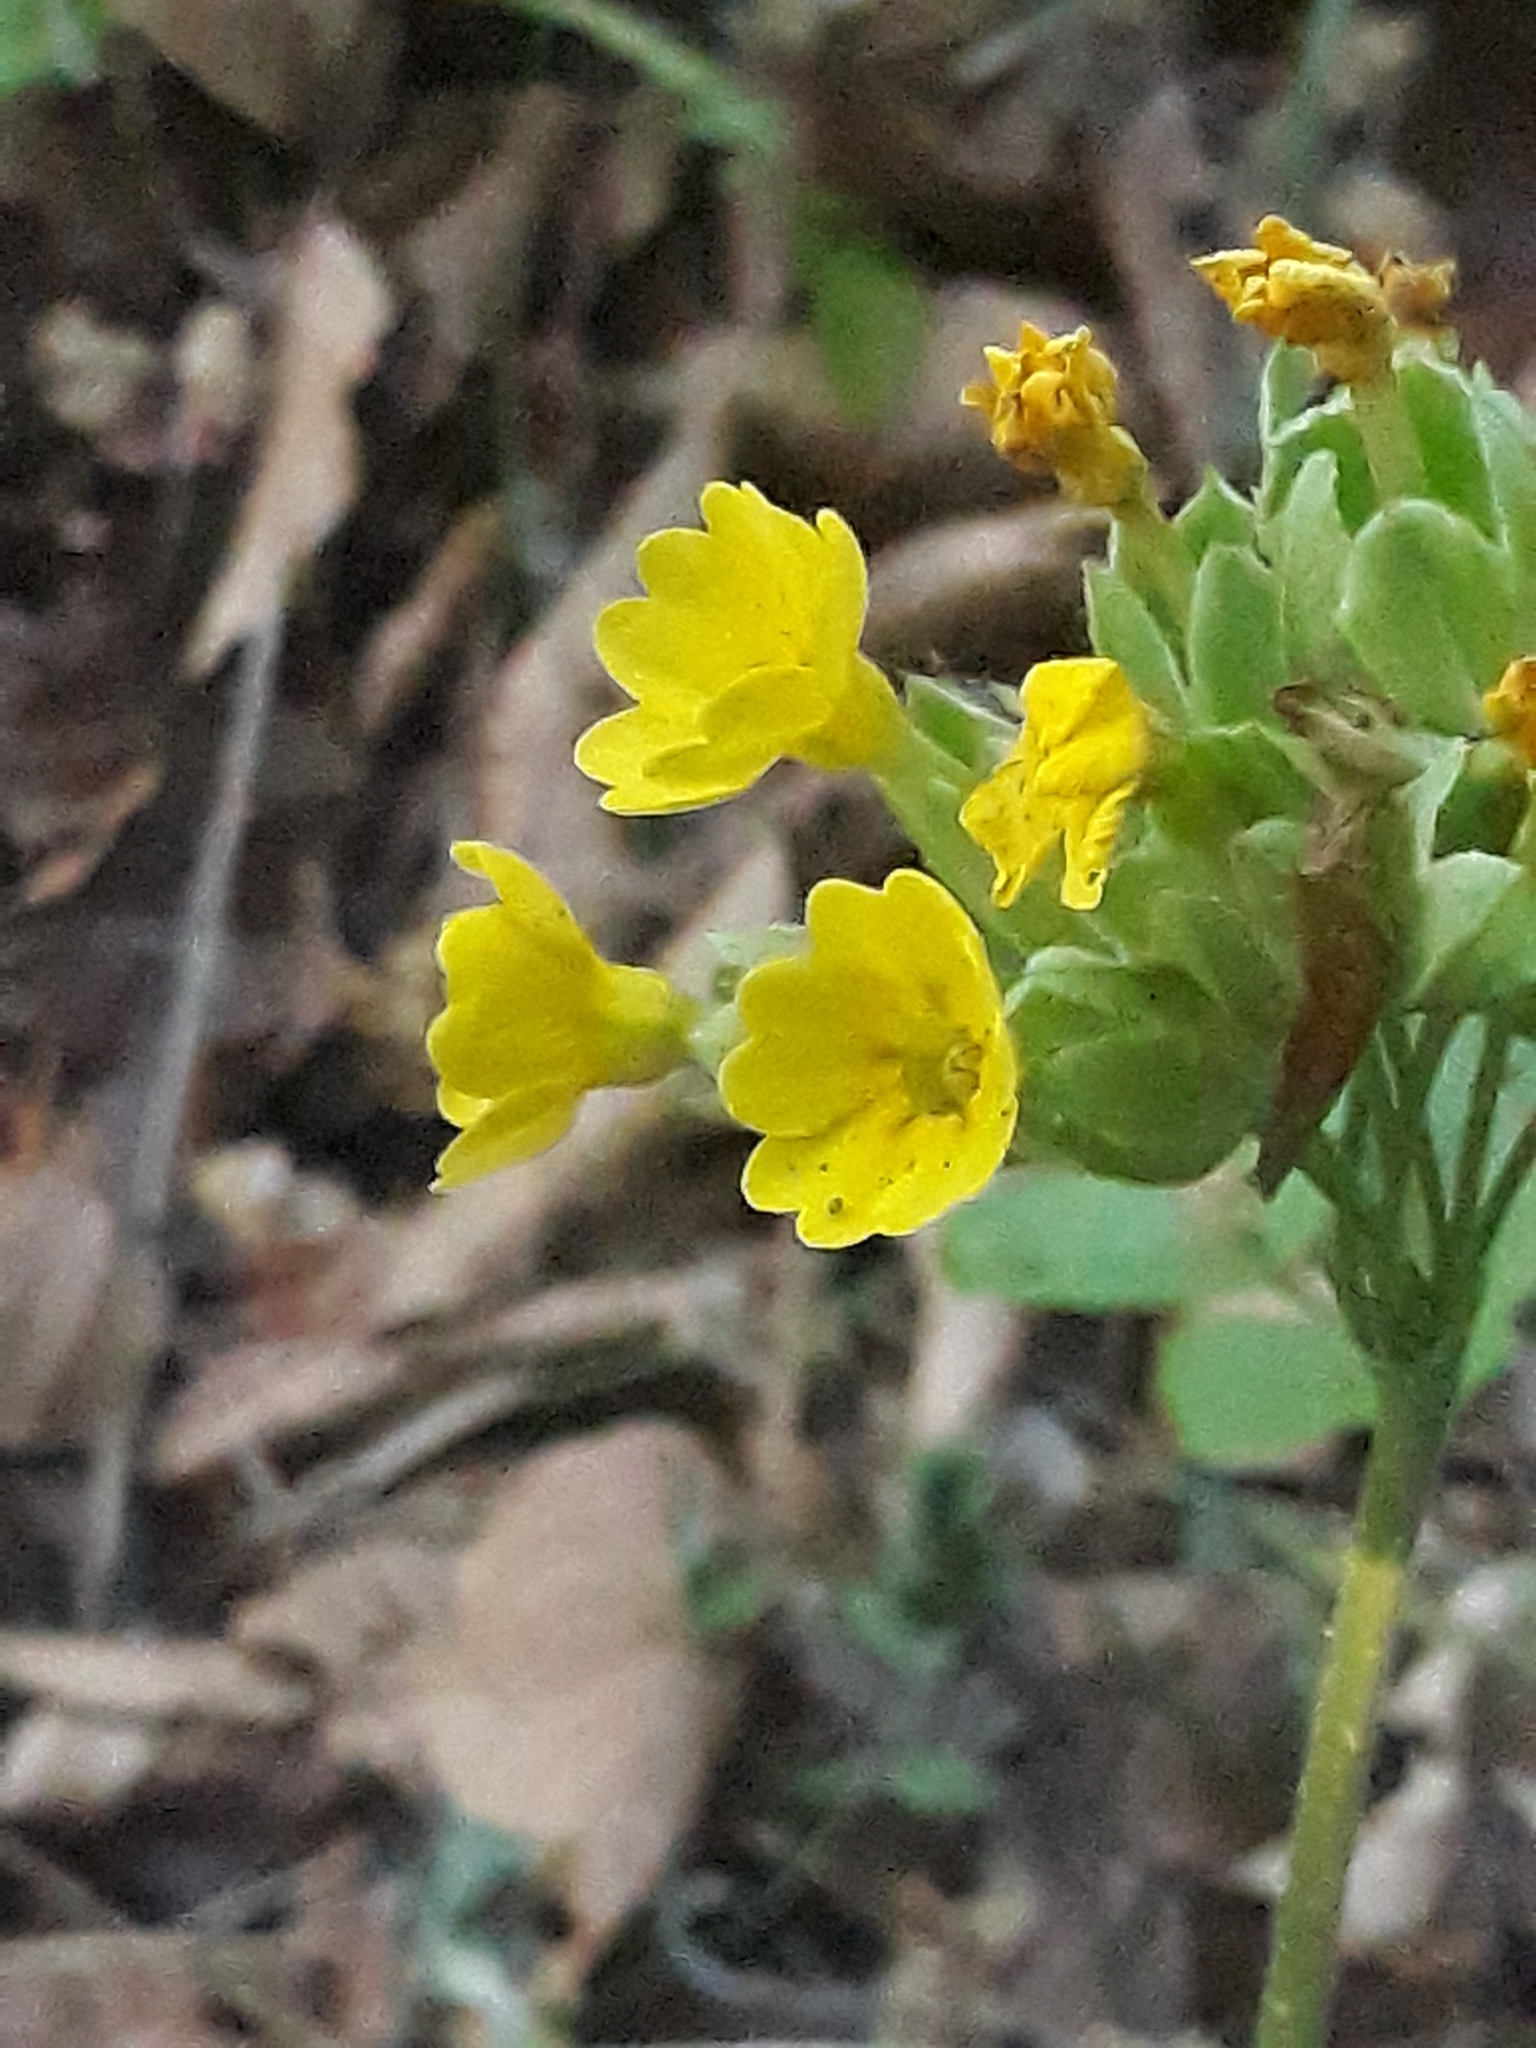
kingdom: Plantae
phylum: Tracheophyta
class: Magnoliopsida
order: Ericales
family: Primulaceae
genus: Primula
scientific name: Primula veris
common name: Cowslip
